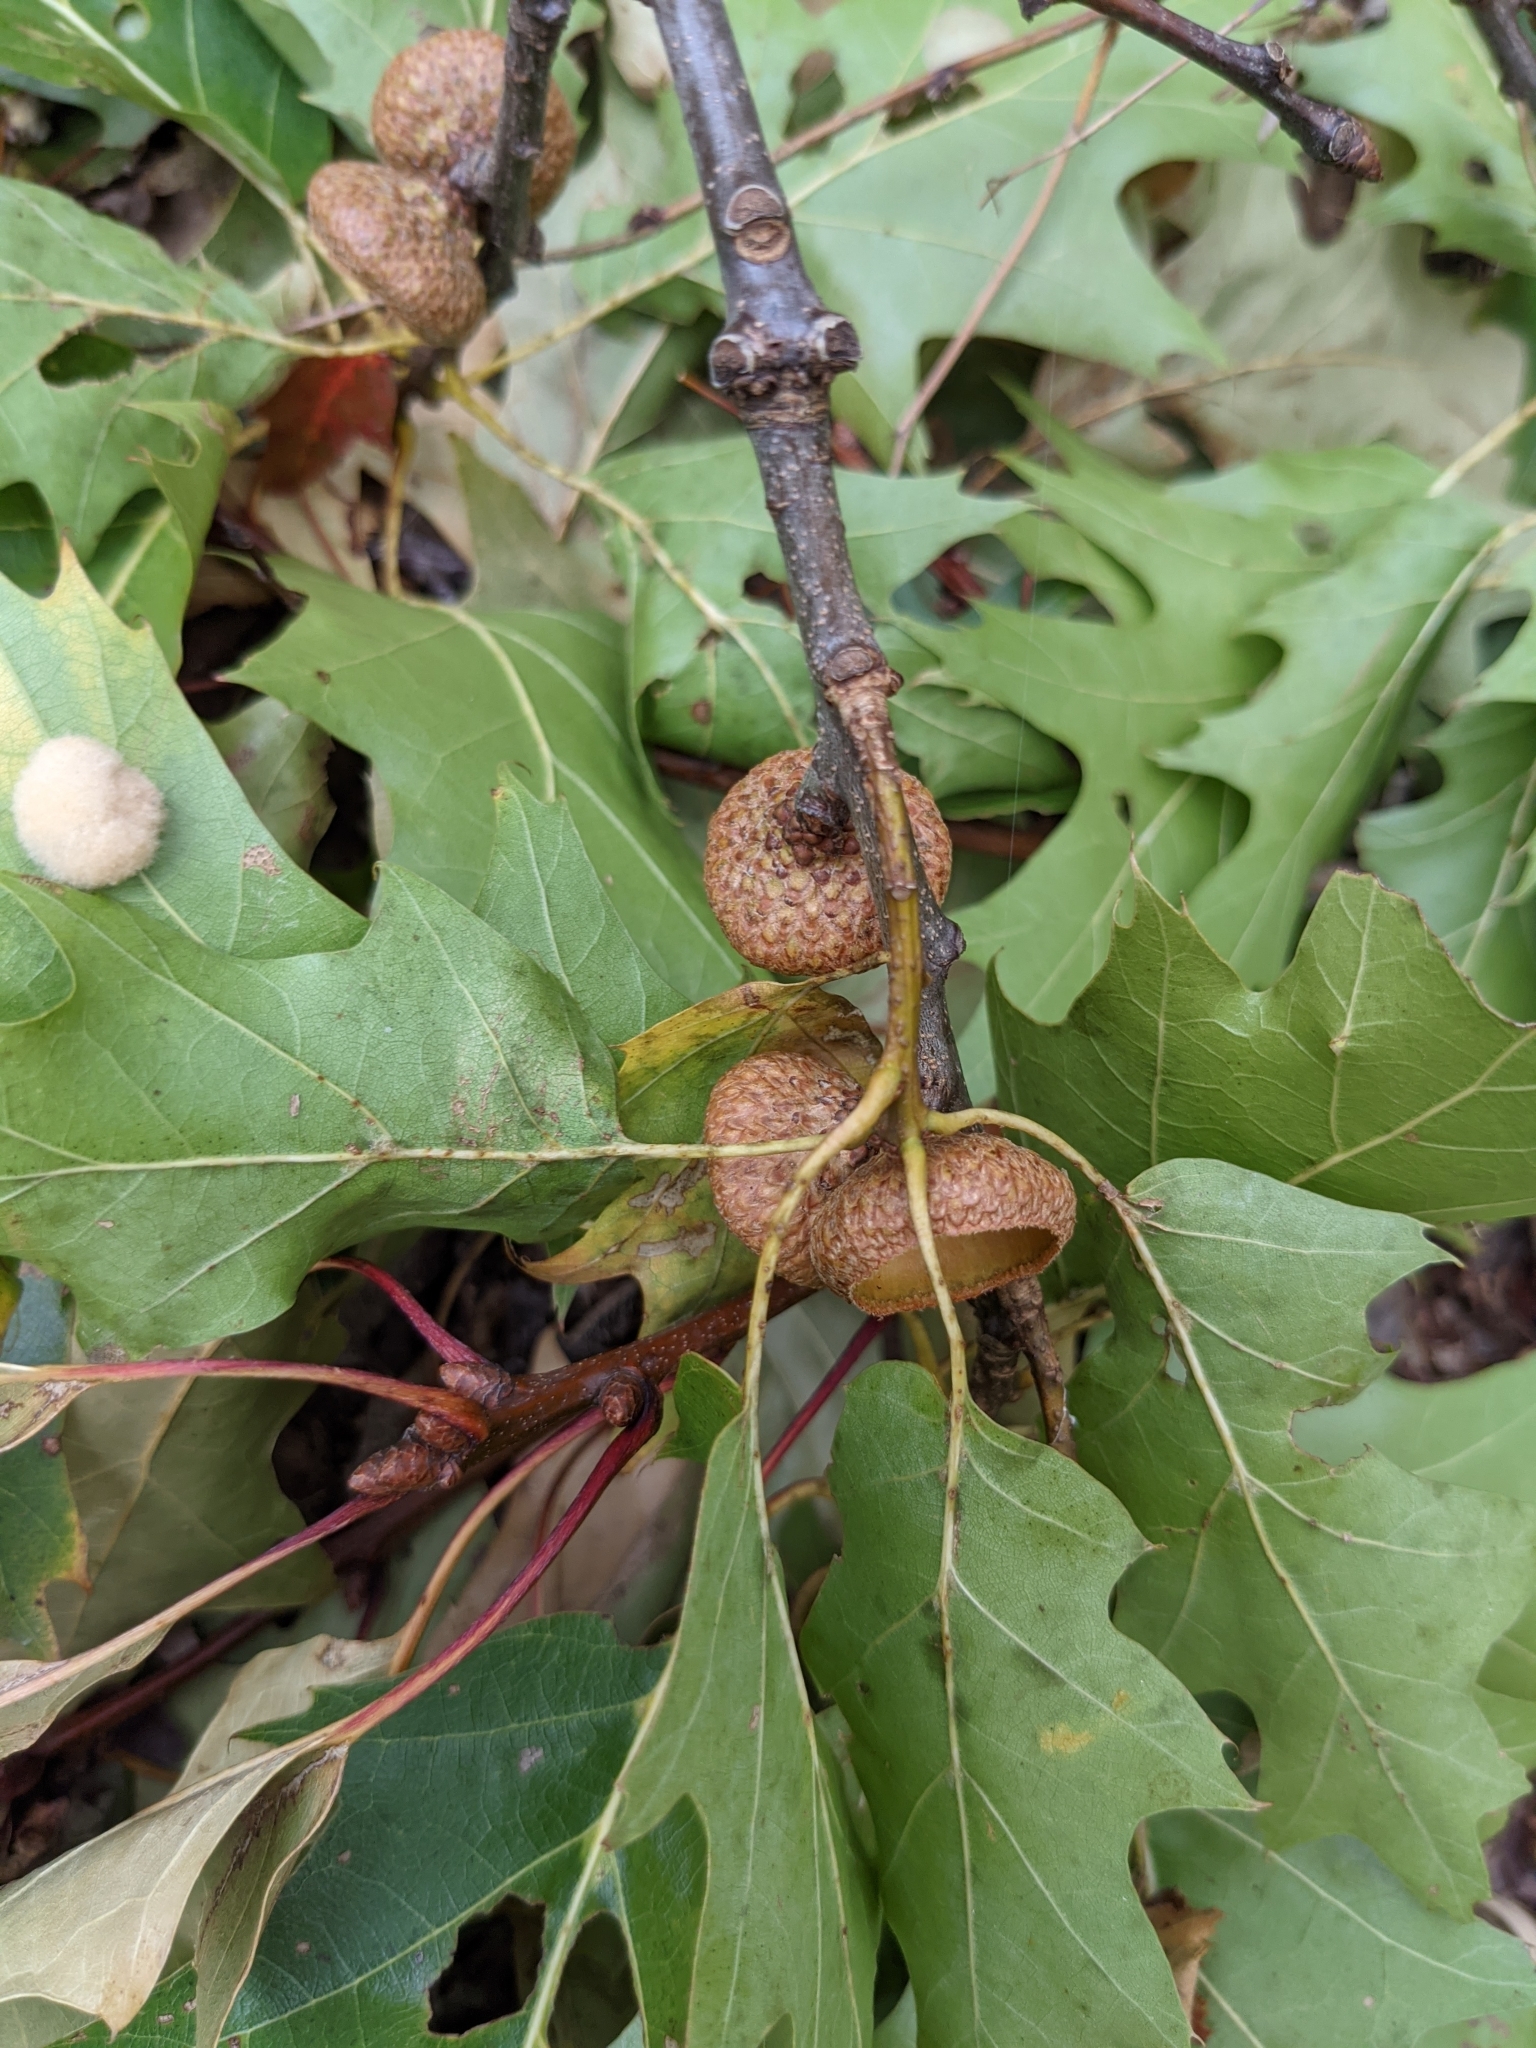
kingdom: Animalia
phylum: Arthropoda
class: Insecta
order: Hymenoptera
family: Cynipidae
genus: Callirhytis
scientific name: Callirhytis
